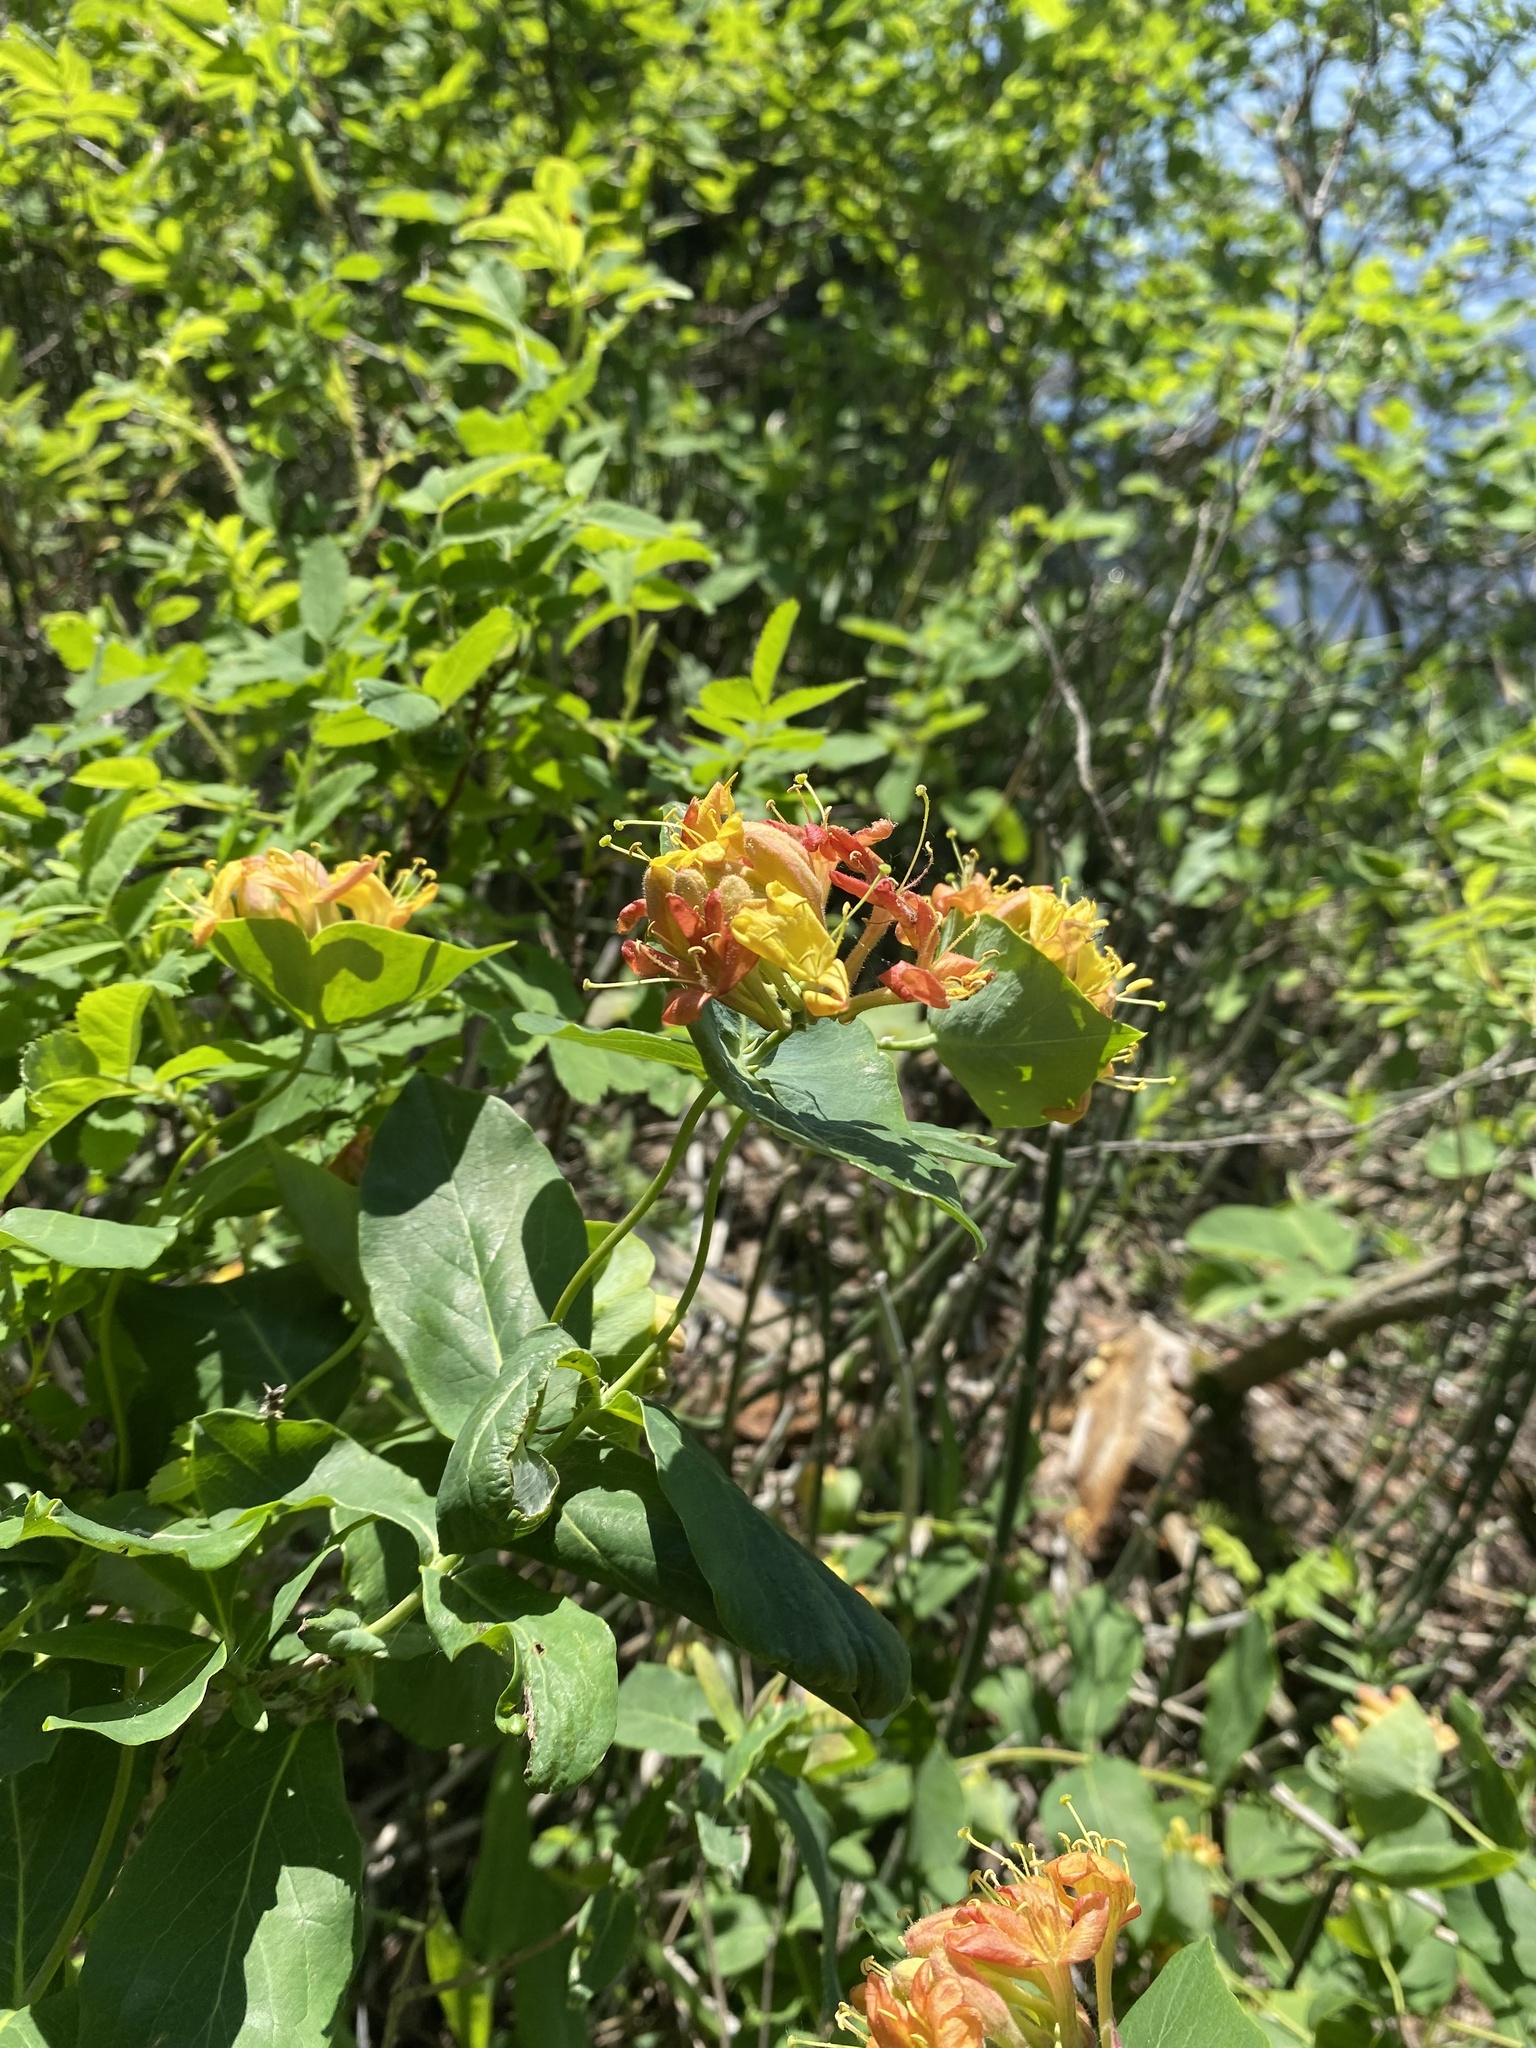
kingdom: Plantae
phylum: Tracheophyta
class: Magnoliopsida
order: Dipsacales
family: Caprifoliaceae
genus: Lonicera
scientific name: Lonicera dioica
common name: Limber honeysuckle
